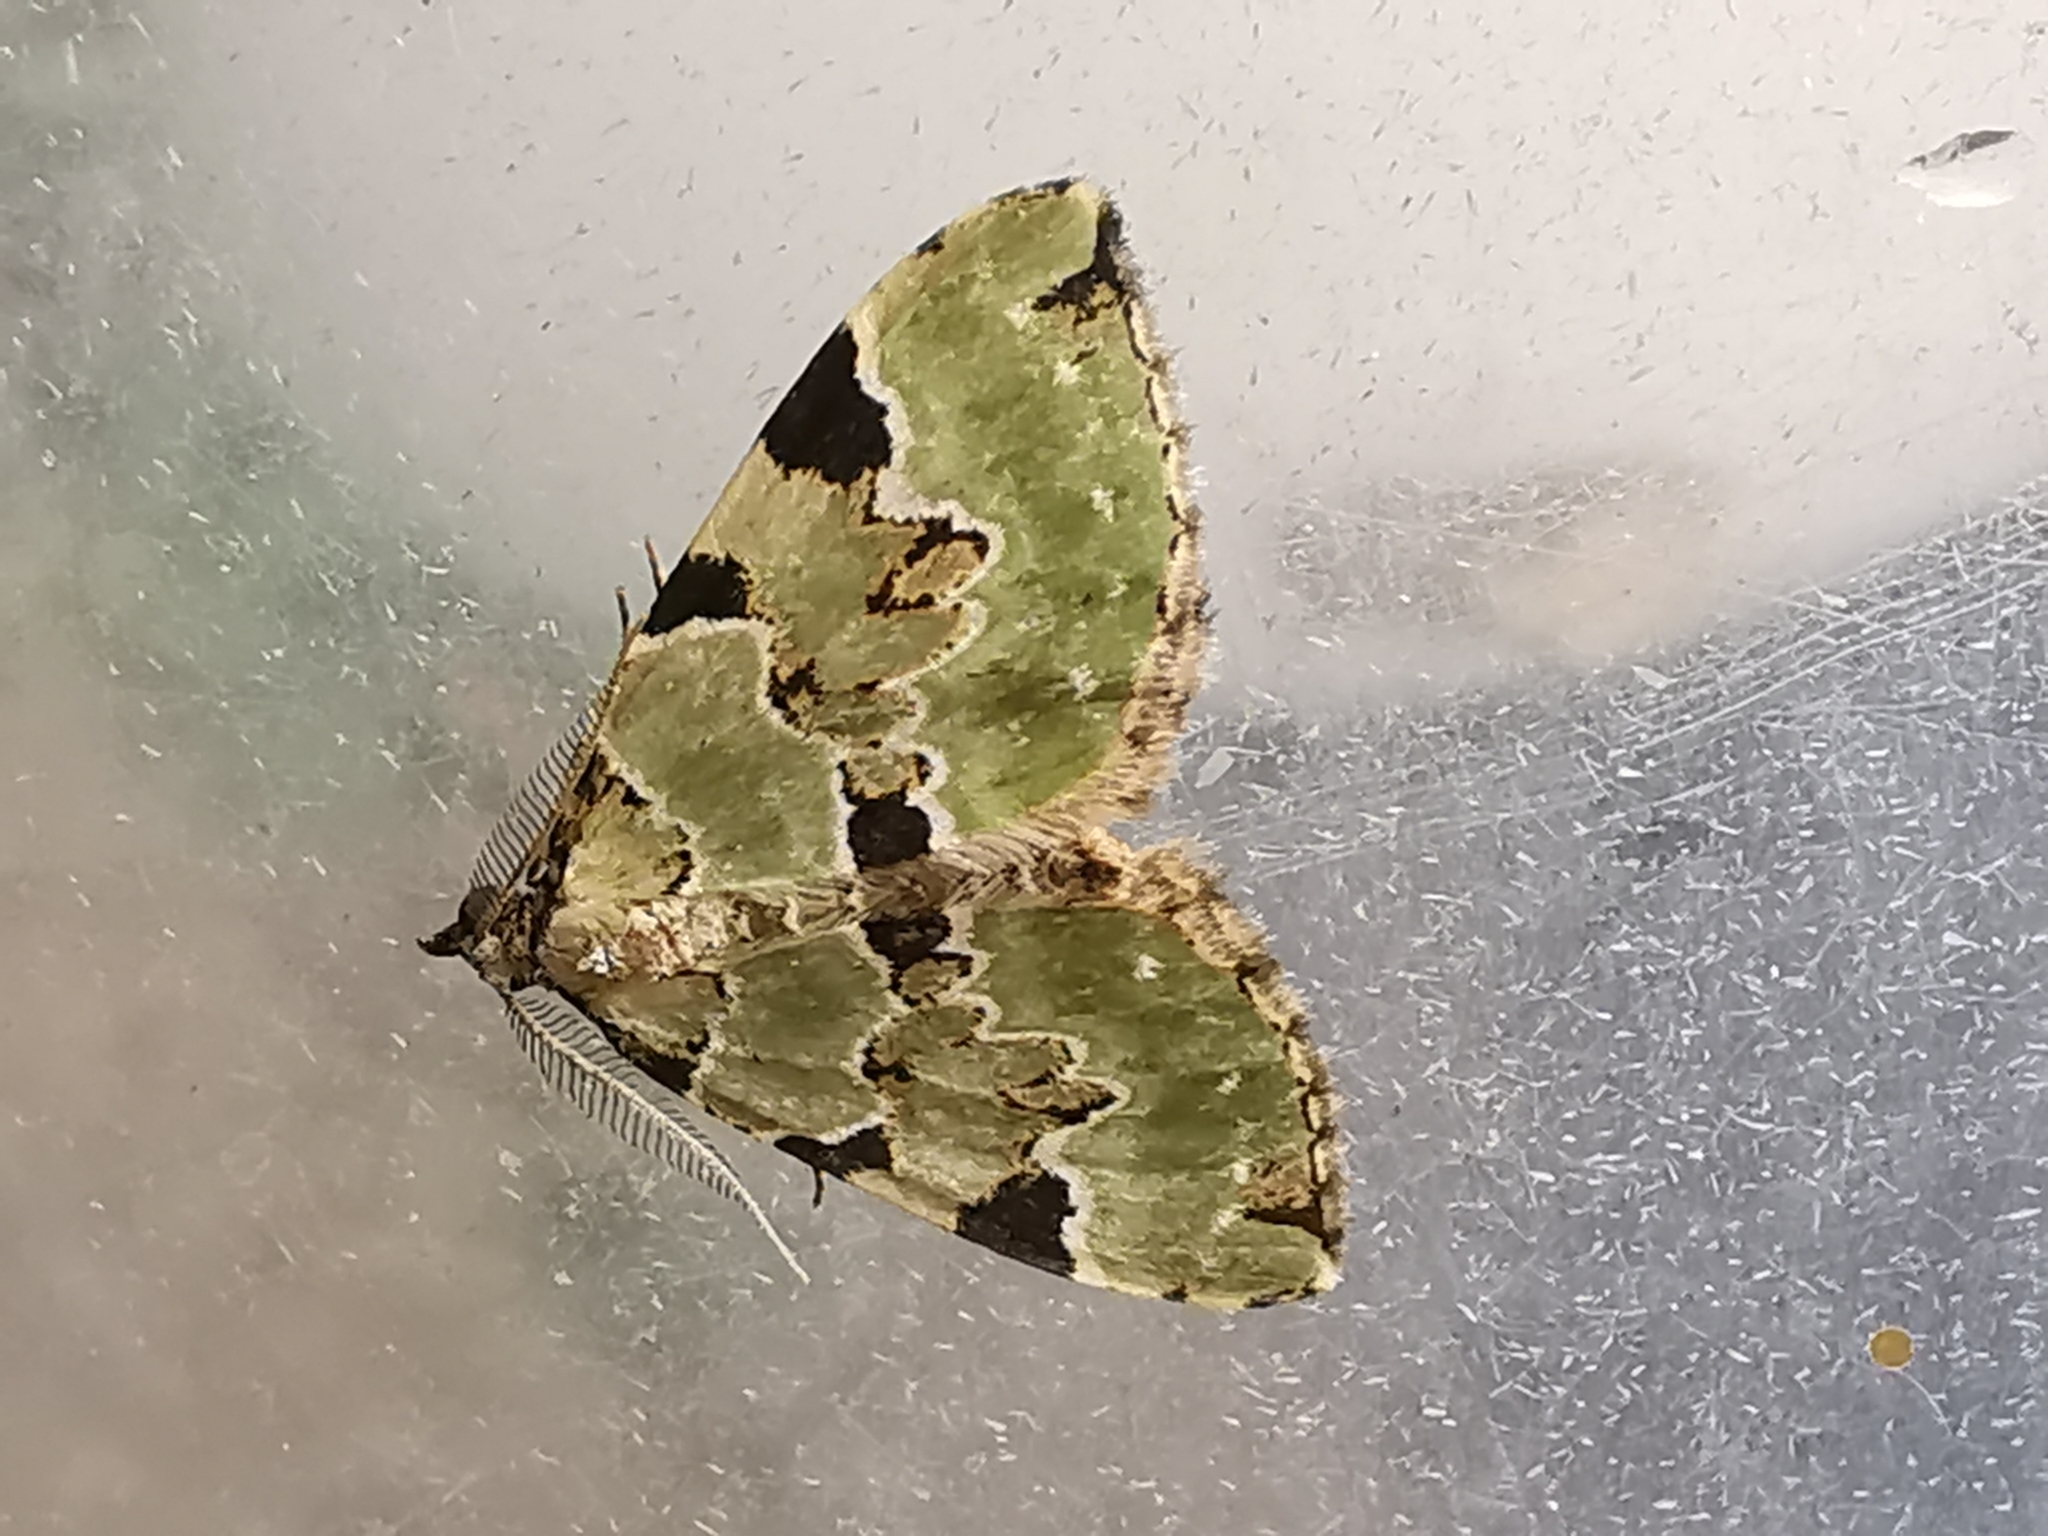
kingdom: Animalia
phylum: Arthropoda
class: Insecta
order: Lepidoptera
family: Geometridae
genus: Colostygia
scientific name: Colostygia pectinataria
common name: Green carpet
